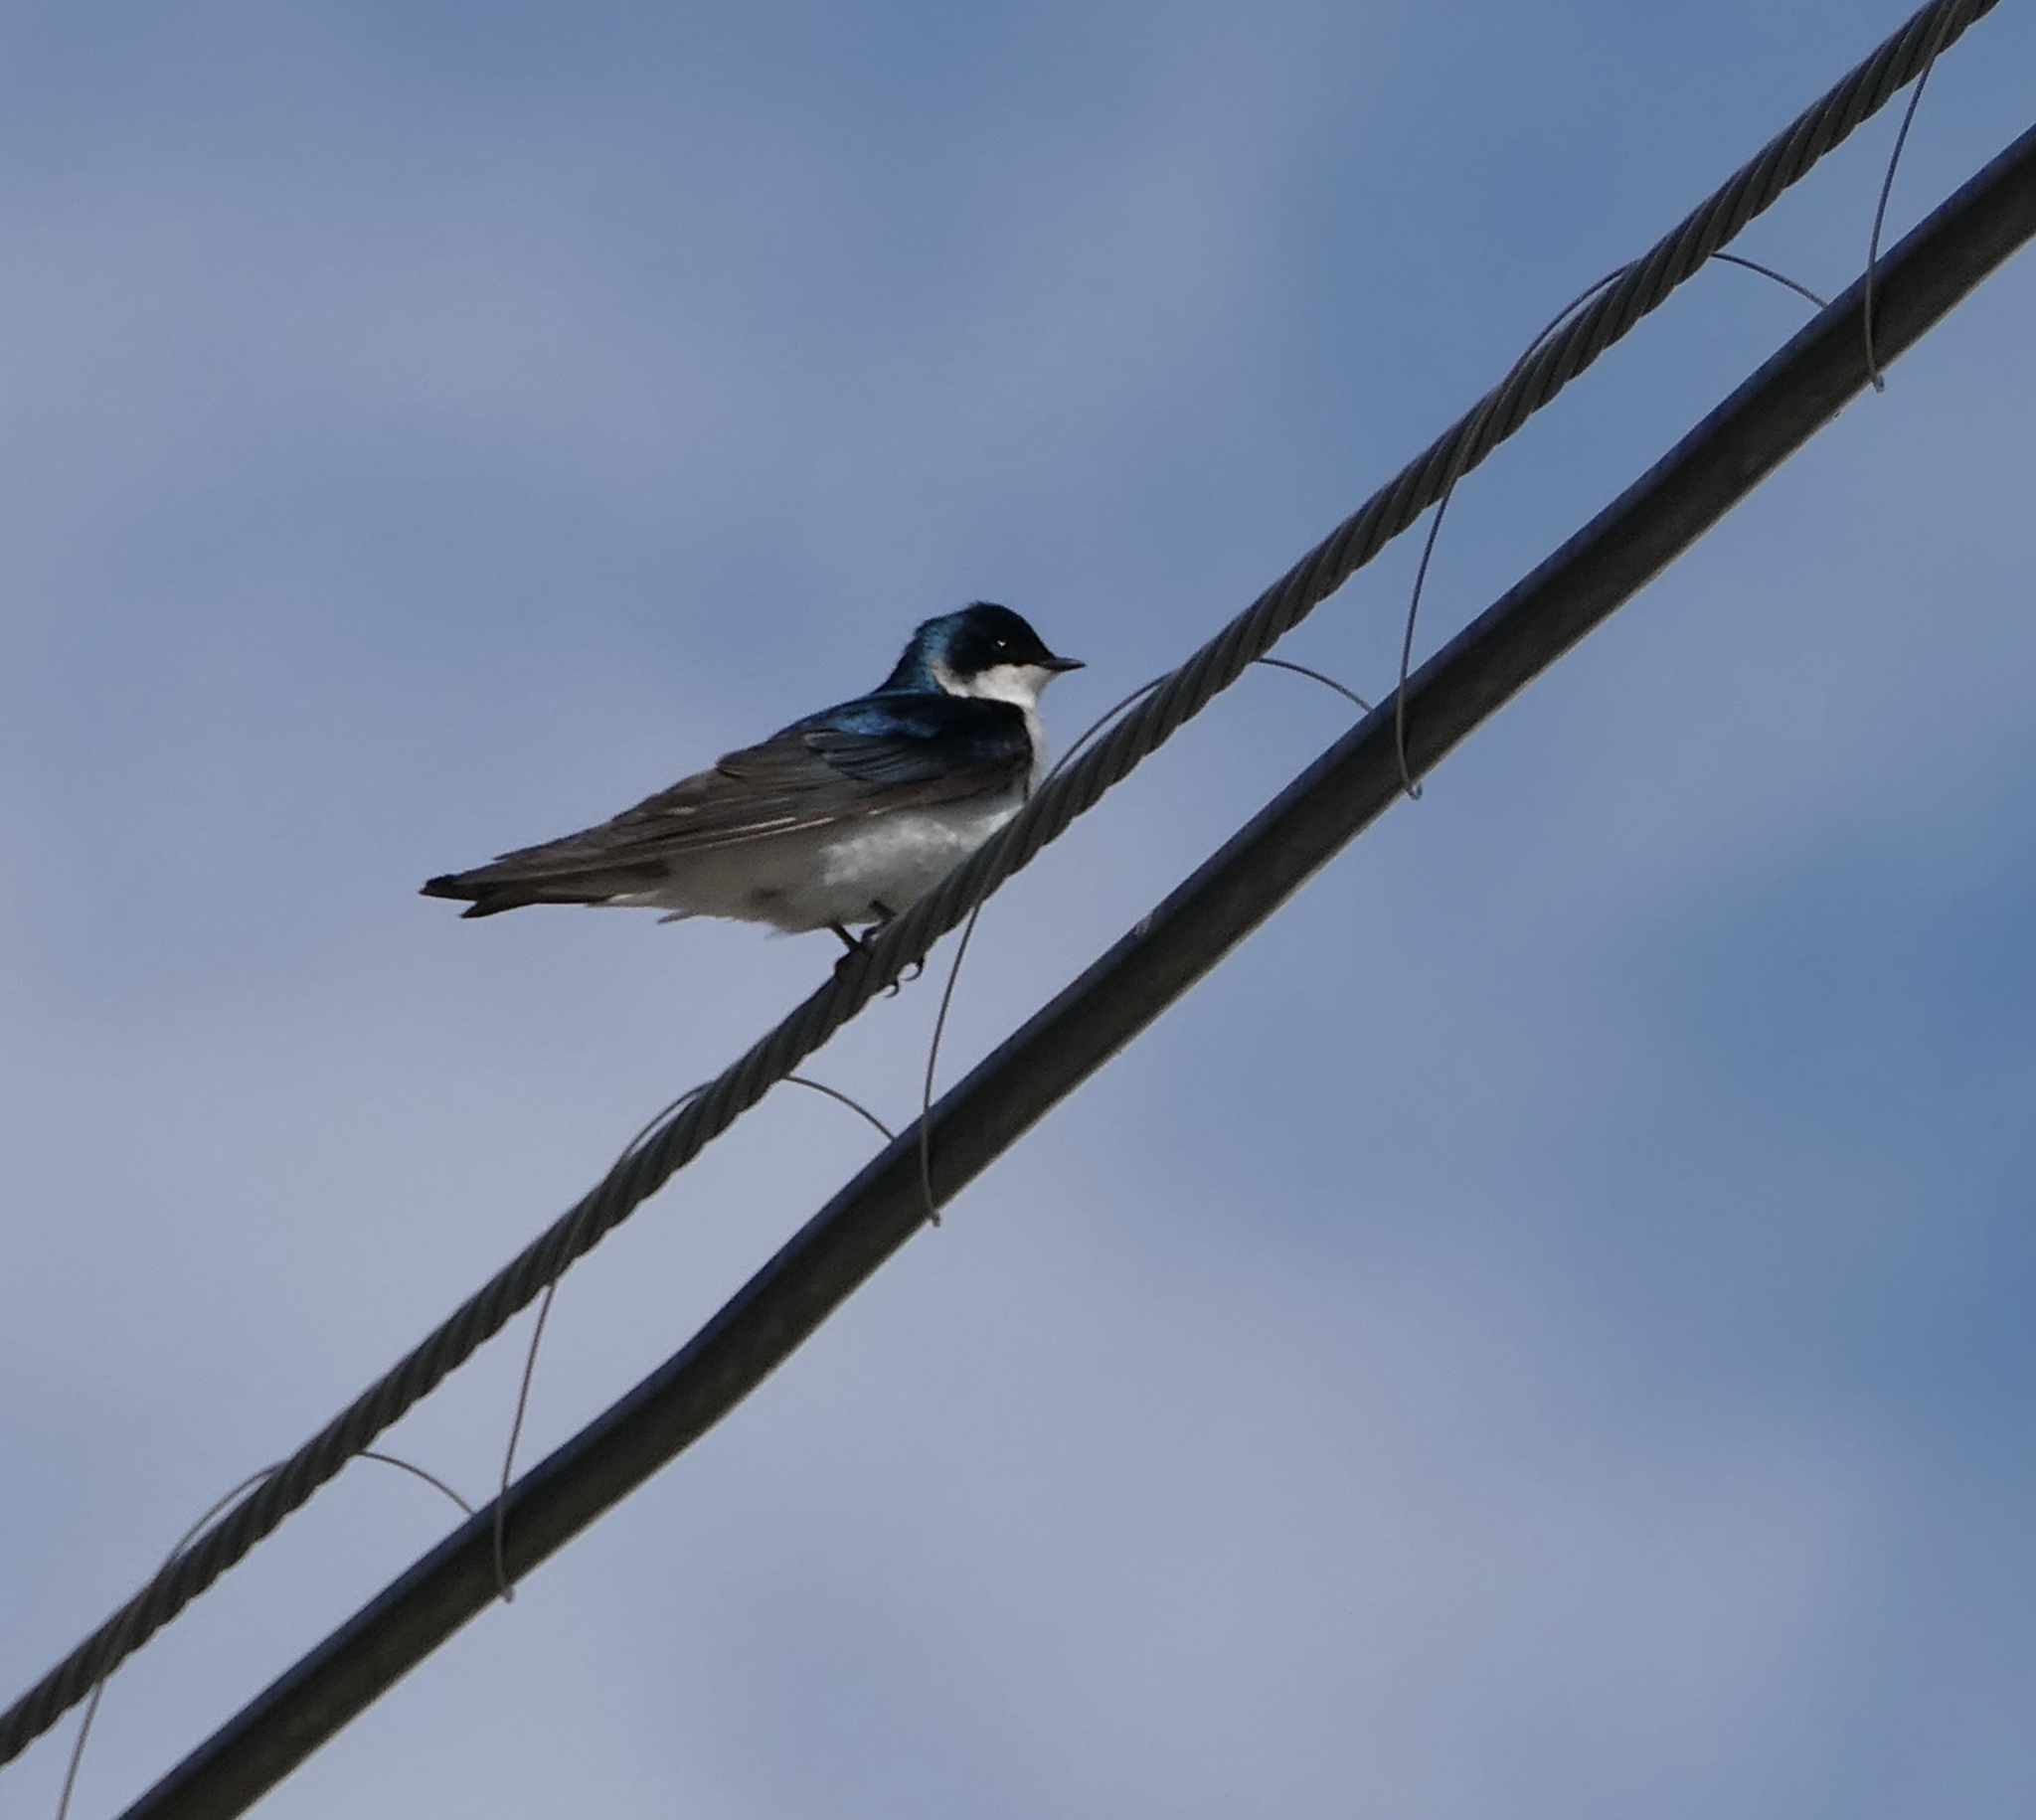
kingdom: Animalia
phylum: Chordata
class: Aves
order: Passeriformes
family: Hirundinidae
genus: Tachycineta
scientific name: Tachycineta bicolor
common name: Tree swallow
